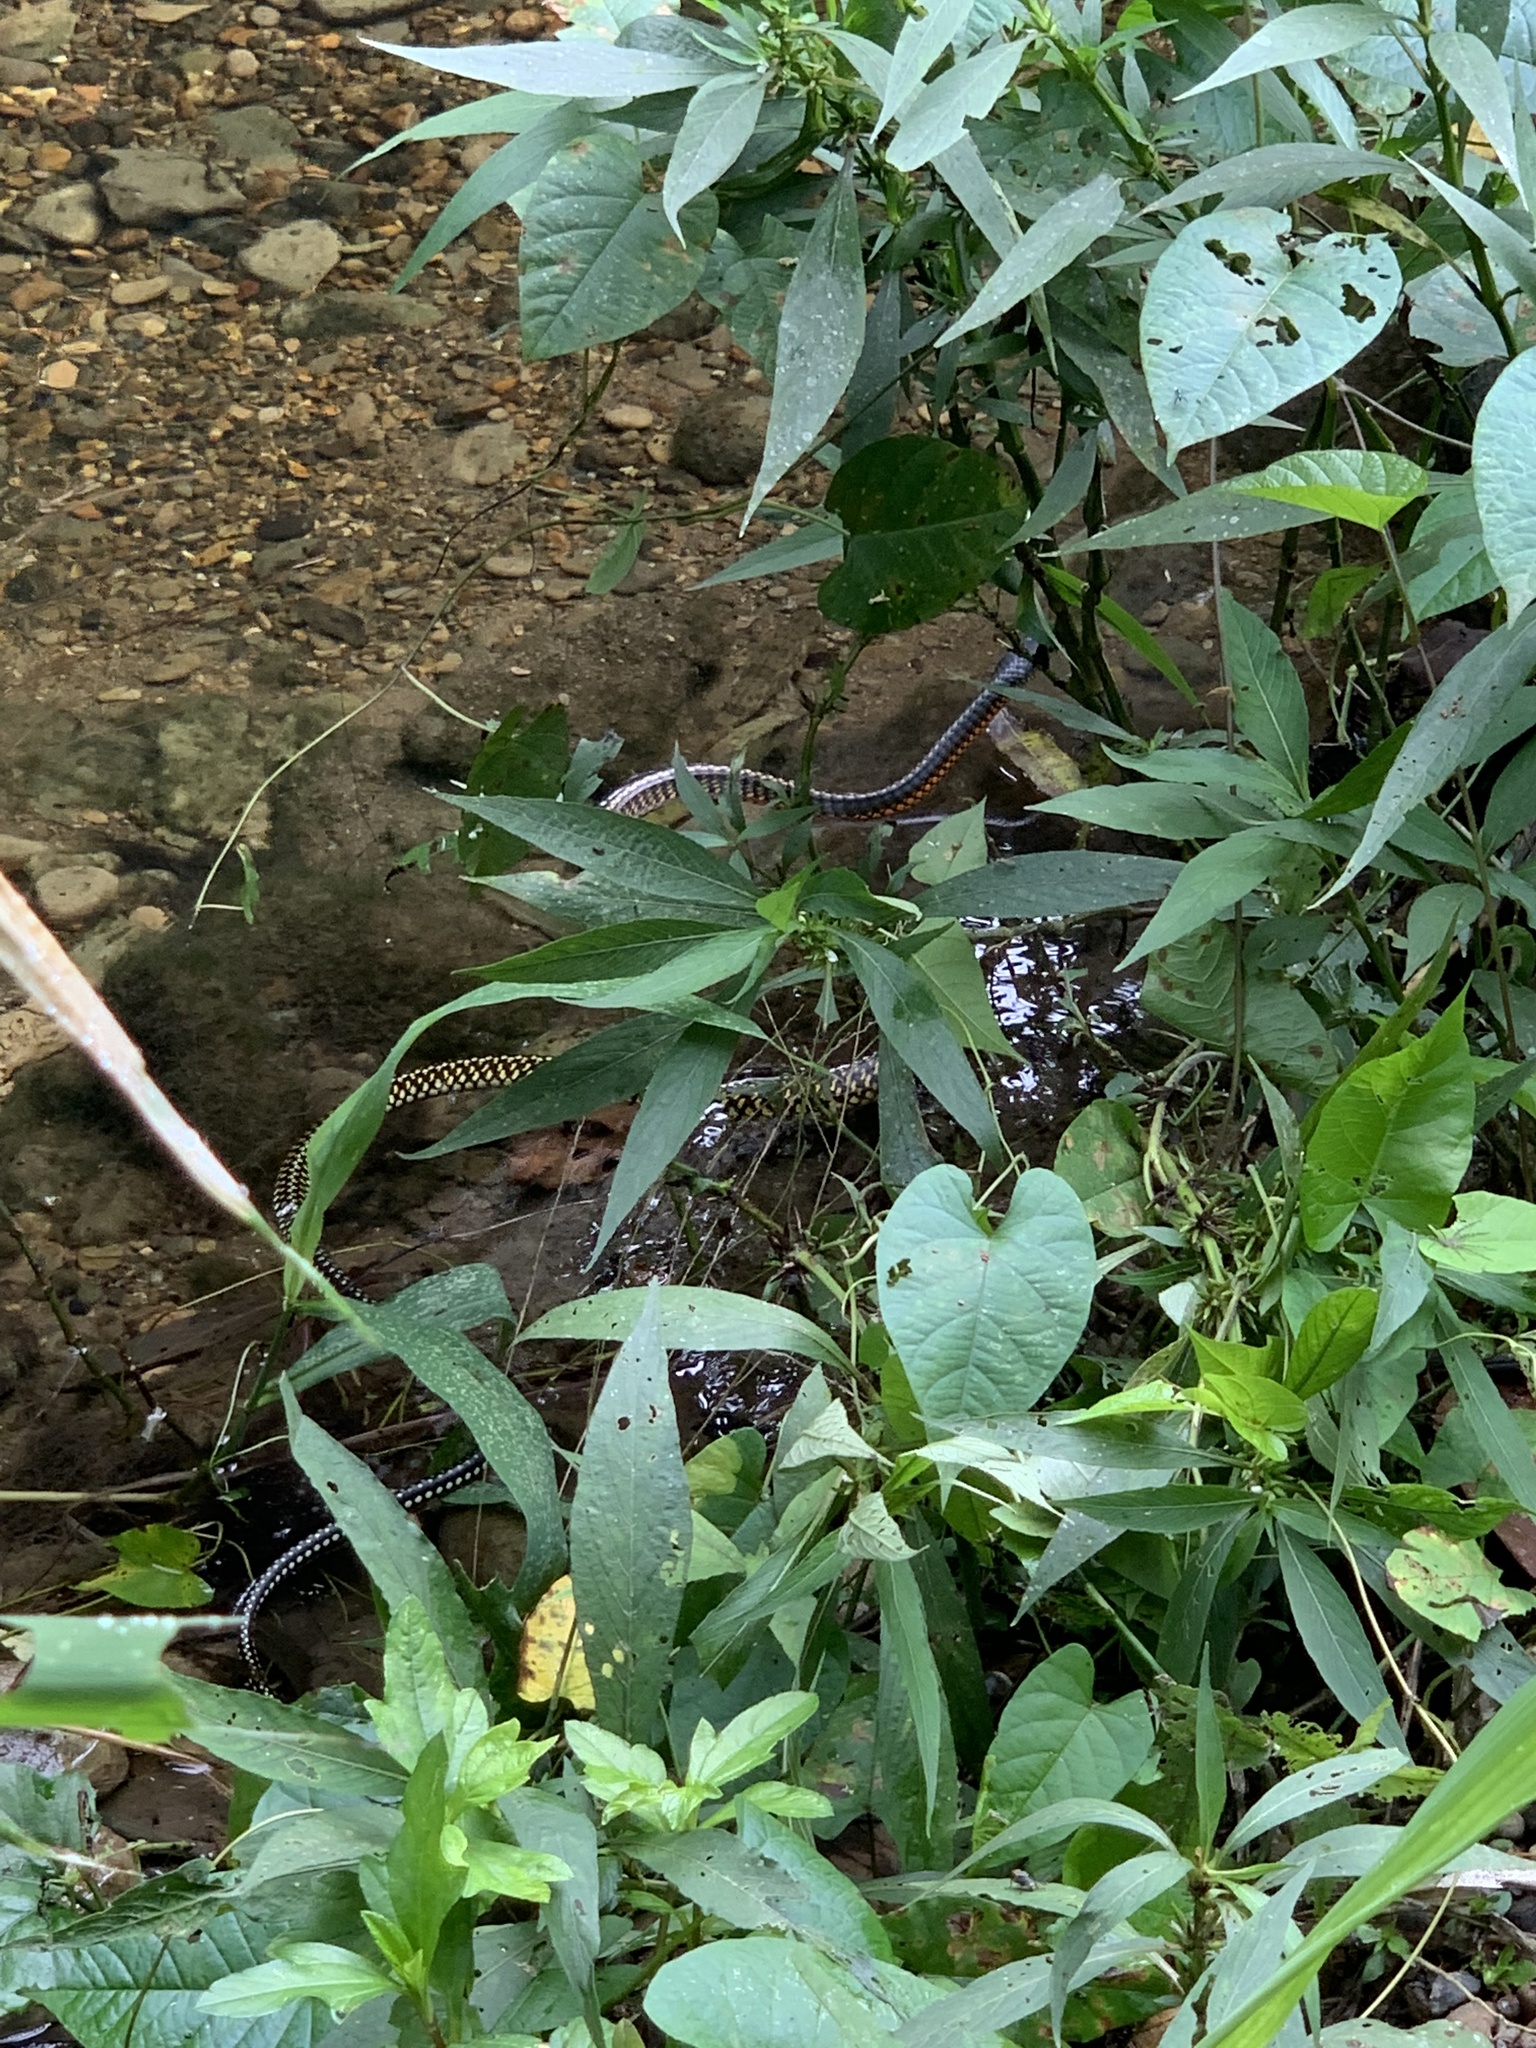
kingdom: Animalia
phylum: Chordata
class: Squamata
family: Colubridae
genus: Chironius
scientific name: Chironius flavopictus
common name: Sipo
